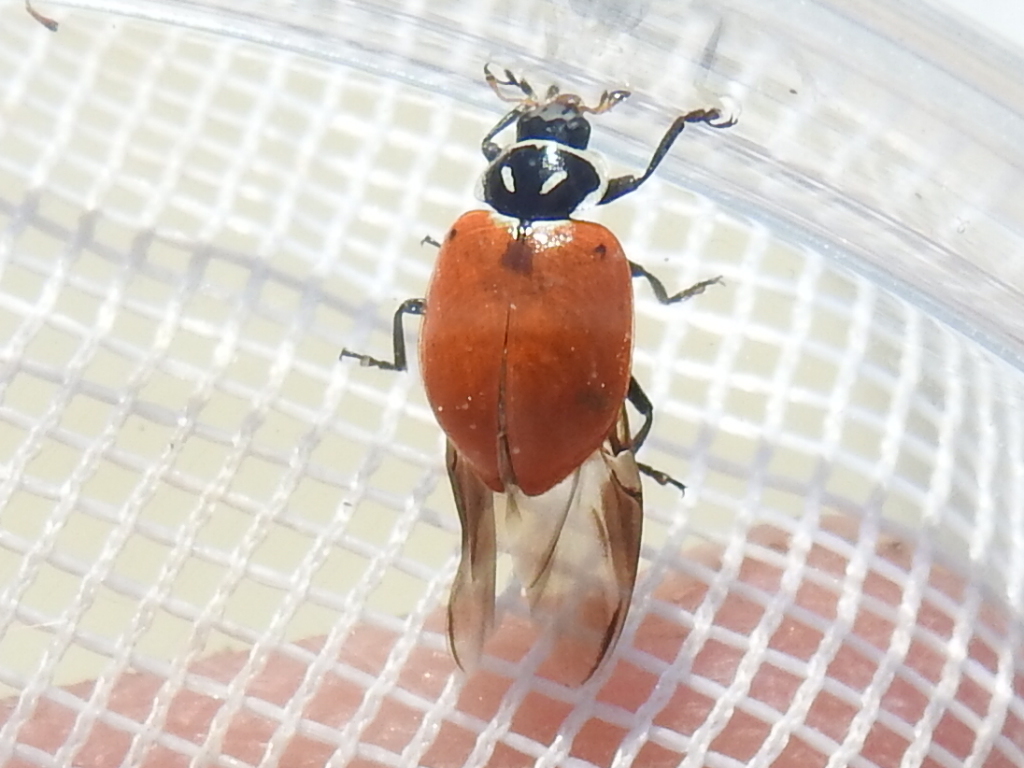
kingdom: Animalia
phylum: Arthropoda
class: Insecta
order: Coleoptera
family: Coccinellidae
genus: Hippodamia
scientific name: Hippodamia convergens
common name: Convergent lady beetle
